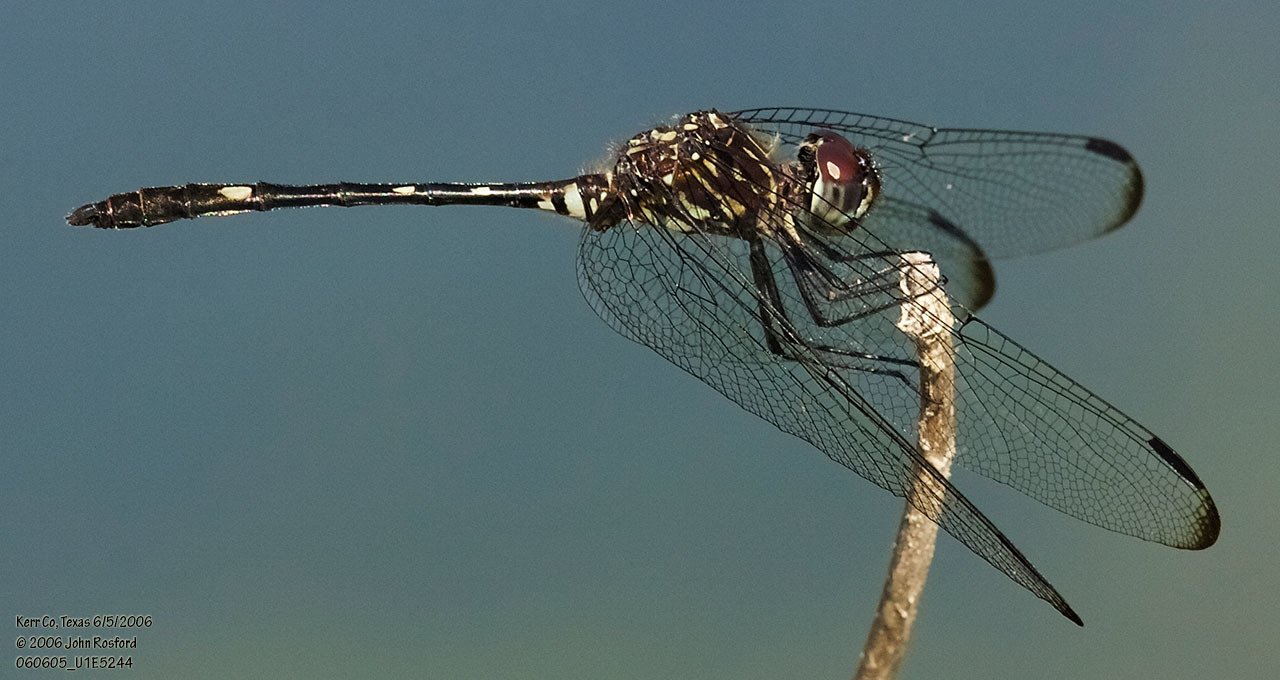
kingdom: Animalia
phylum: Arthropoda
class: Insecta
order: Odonata
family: Libellulidae
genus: Dythemis
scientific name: Dythemis velox
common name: Swift setwing
